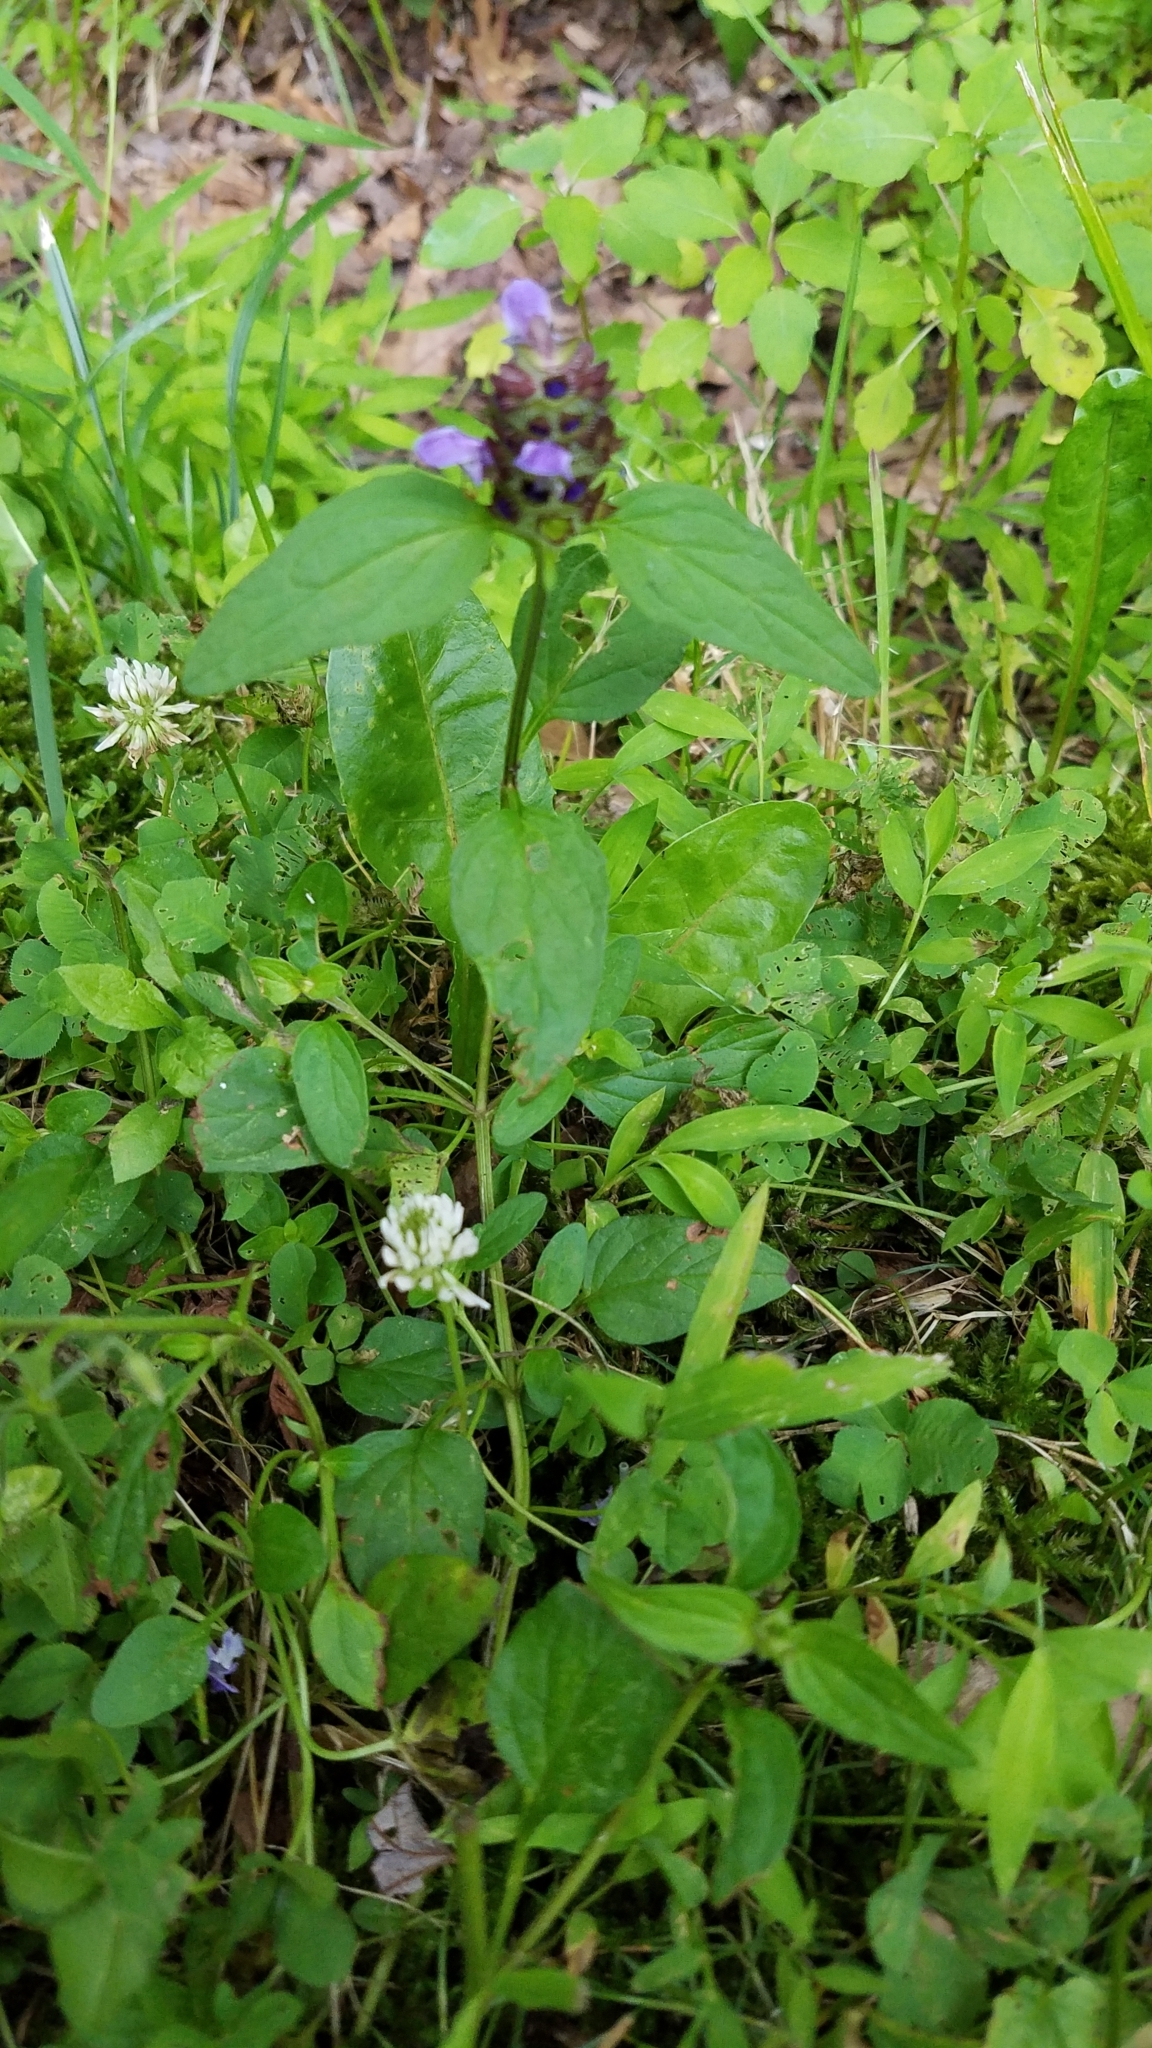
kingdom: Plantae
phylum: Tracheophyta
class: Magnoliopsida
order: Lamiales
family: Lamiaceae
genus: Prunella
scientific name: Prunella vulgaris
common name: Heal-all
